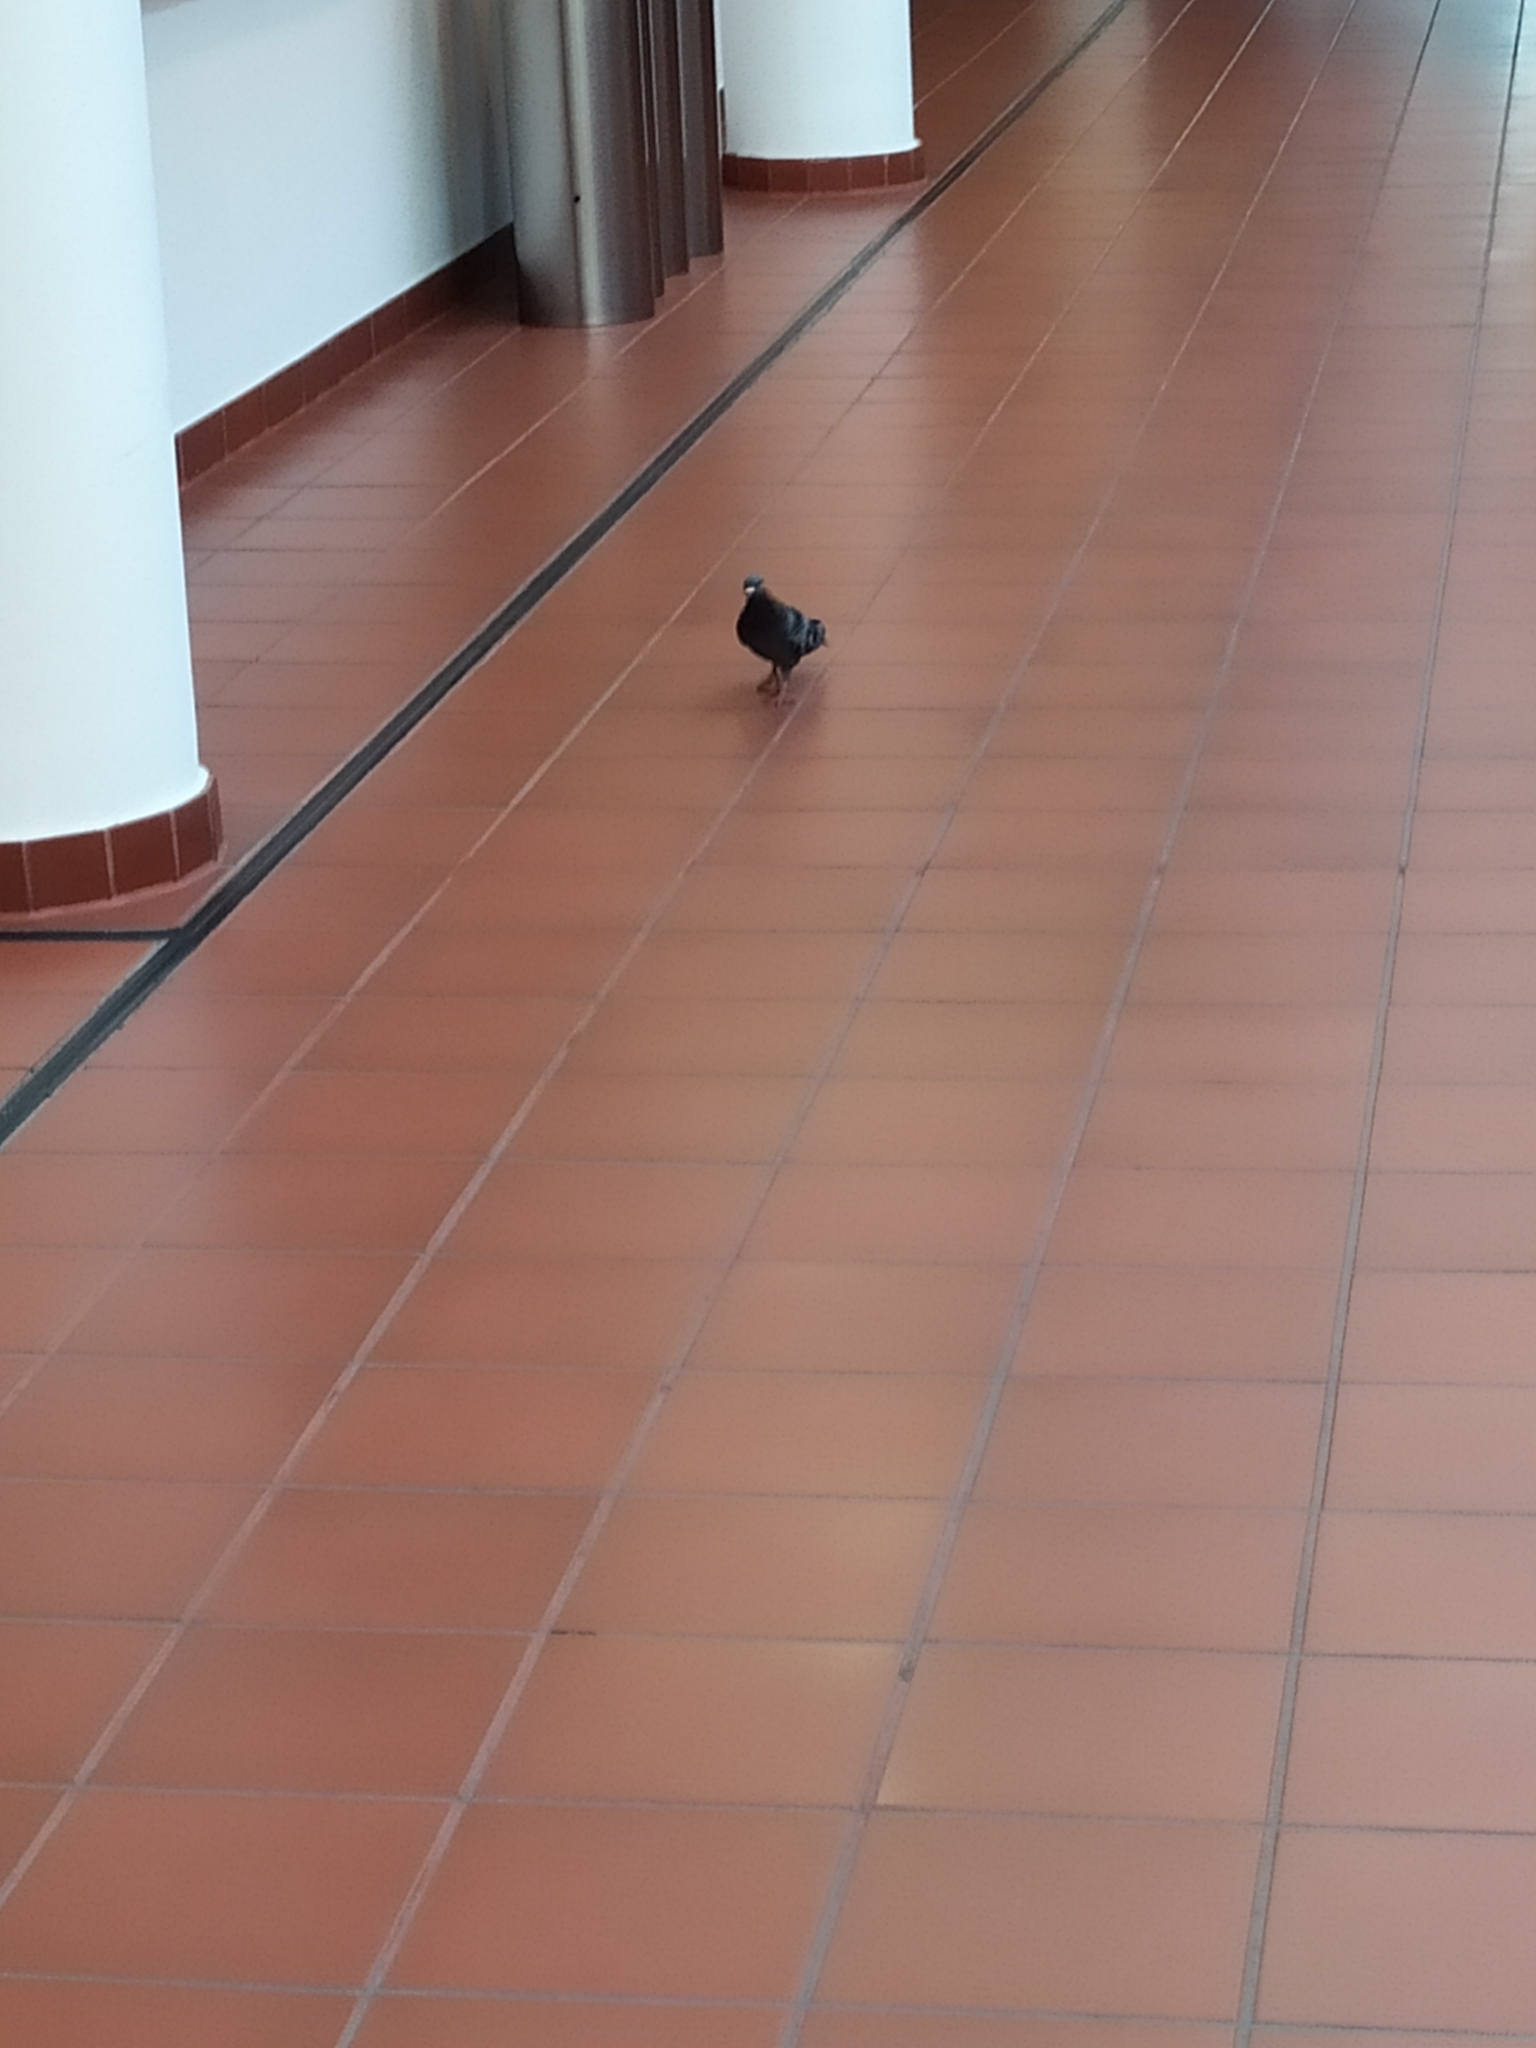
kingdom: Animalia
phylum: Chordata
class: Aves
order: Columbiformes
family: Columbidae
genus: Columba
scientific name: Columba livia
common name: Rock pigeon
